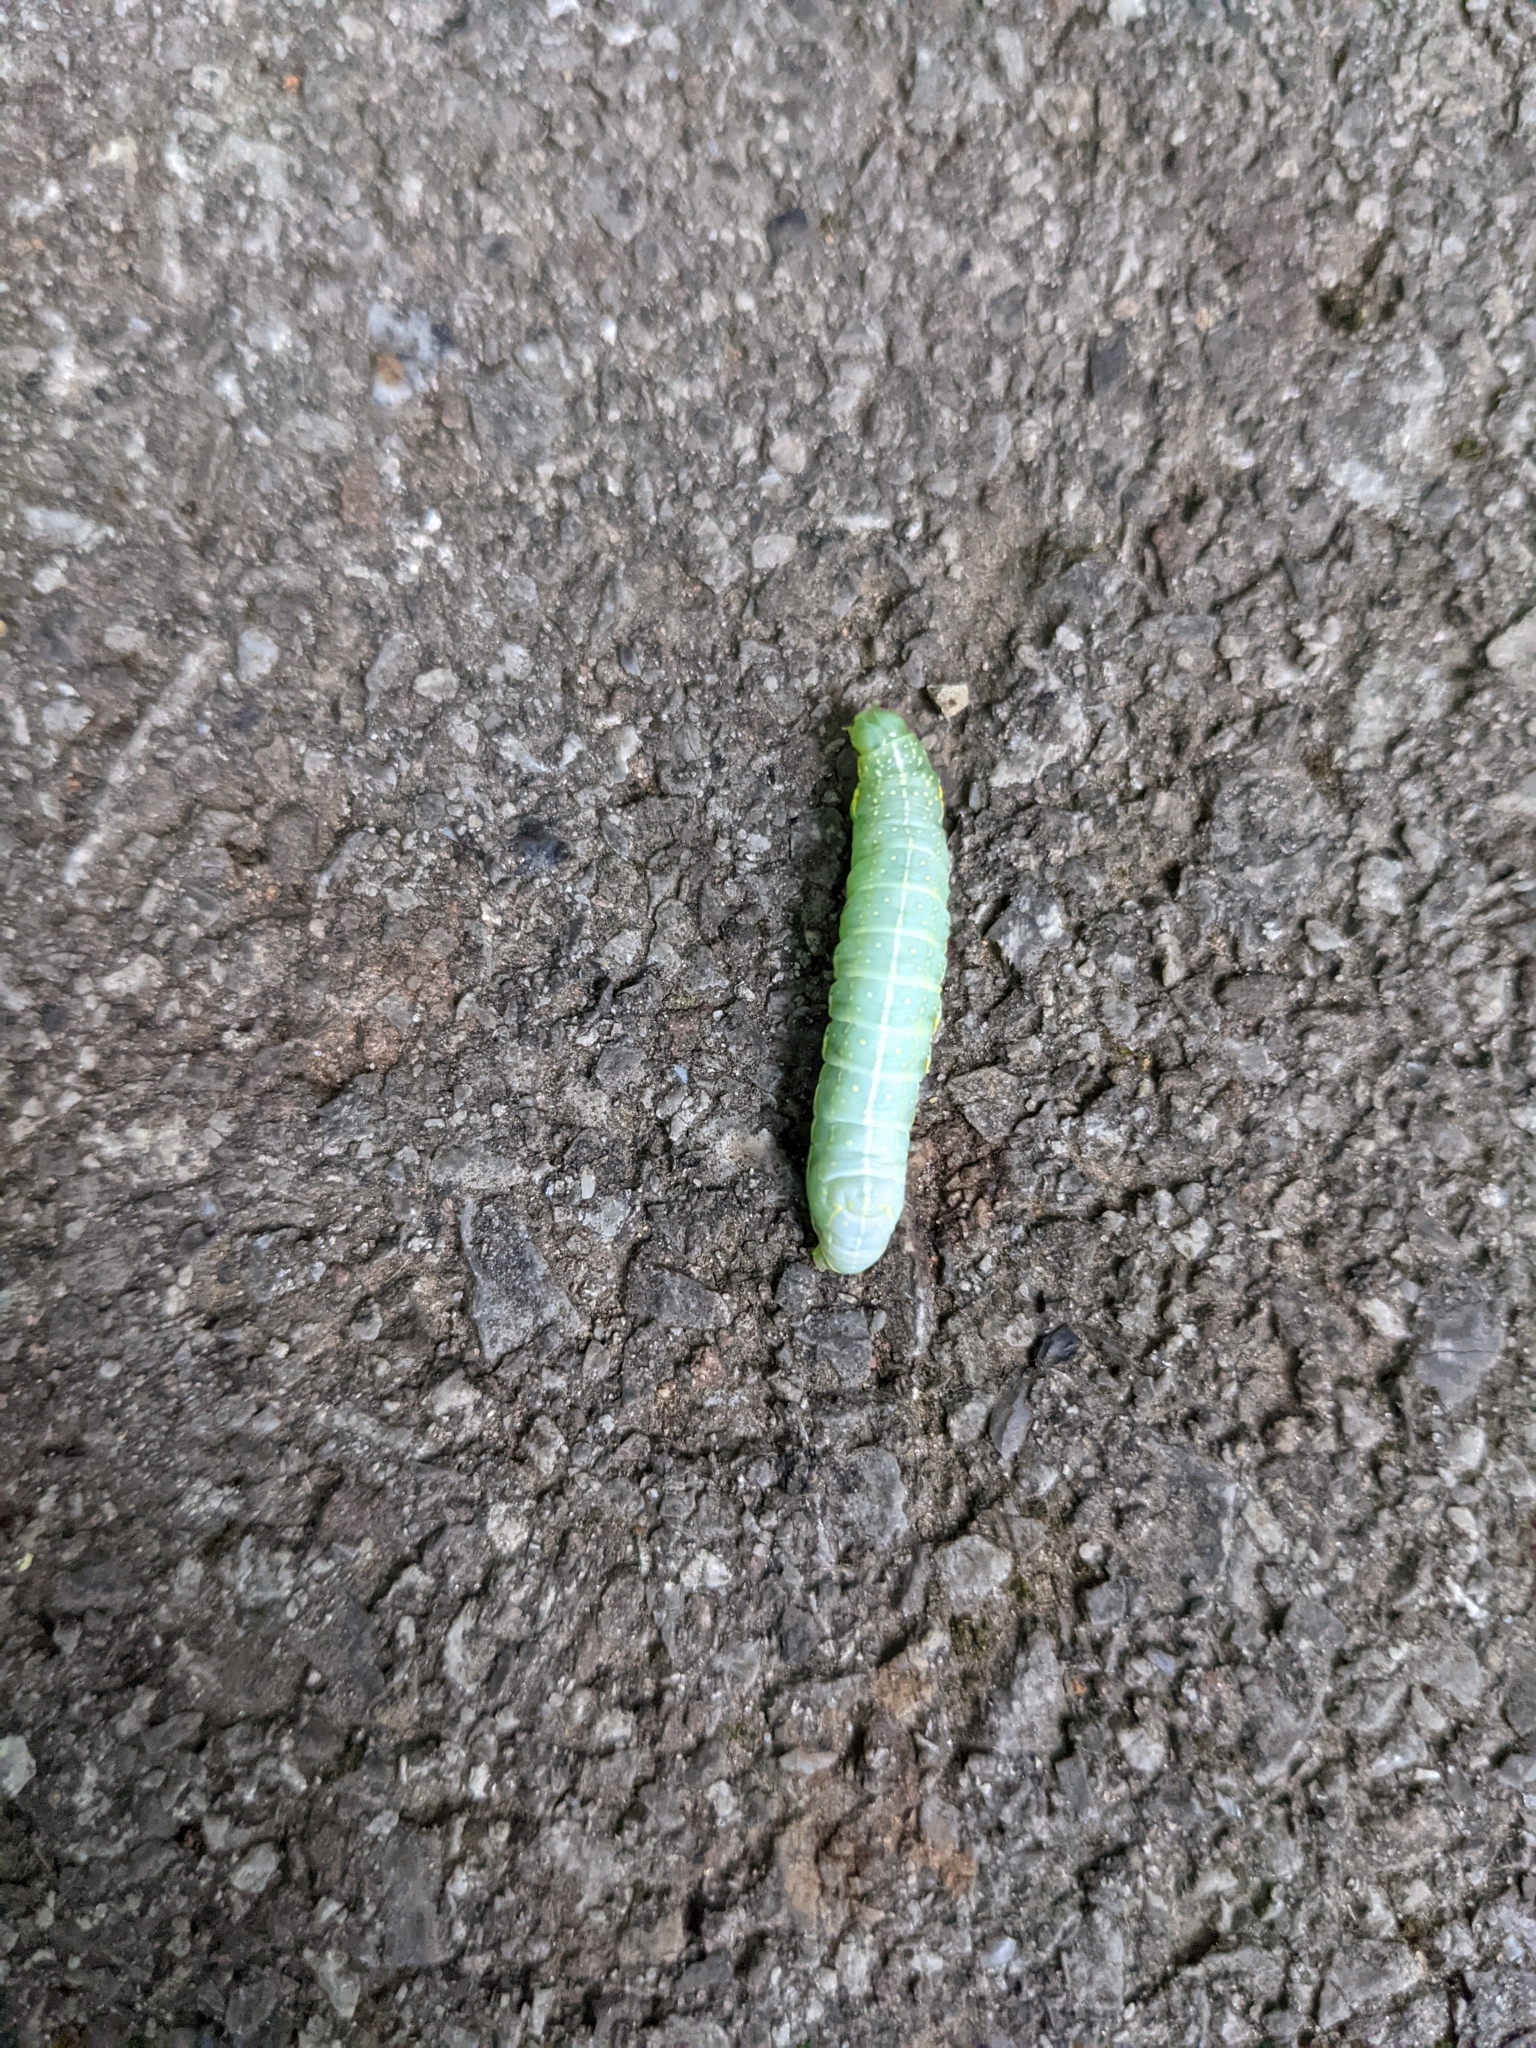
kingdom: Animalia
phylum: Arthropoda
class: Insecta
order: Lepidoptera
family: Noctuidae
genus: Amphipyra
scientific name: Amphipyra pyramidoides
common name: American copper underwing
